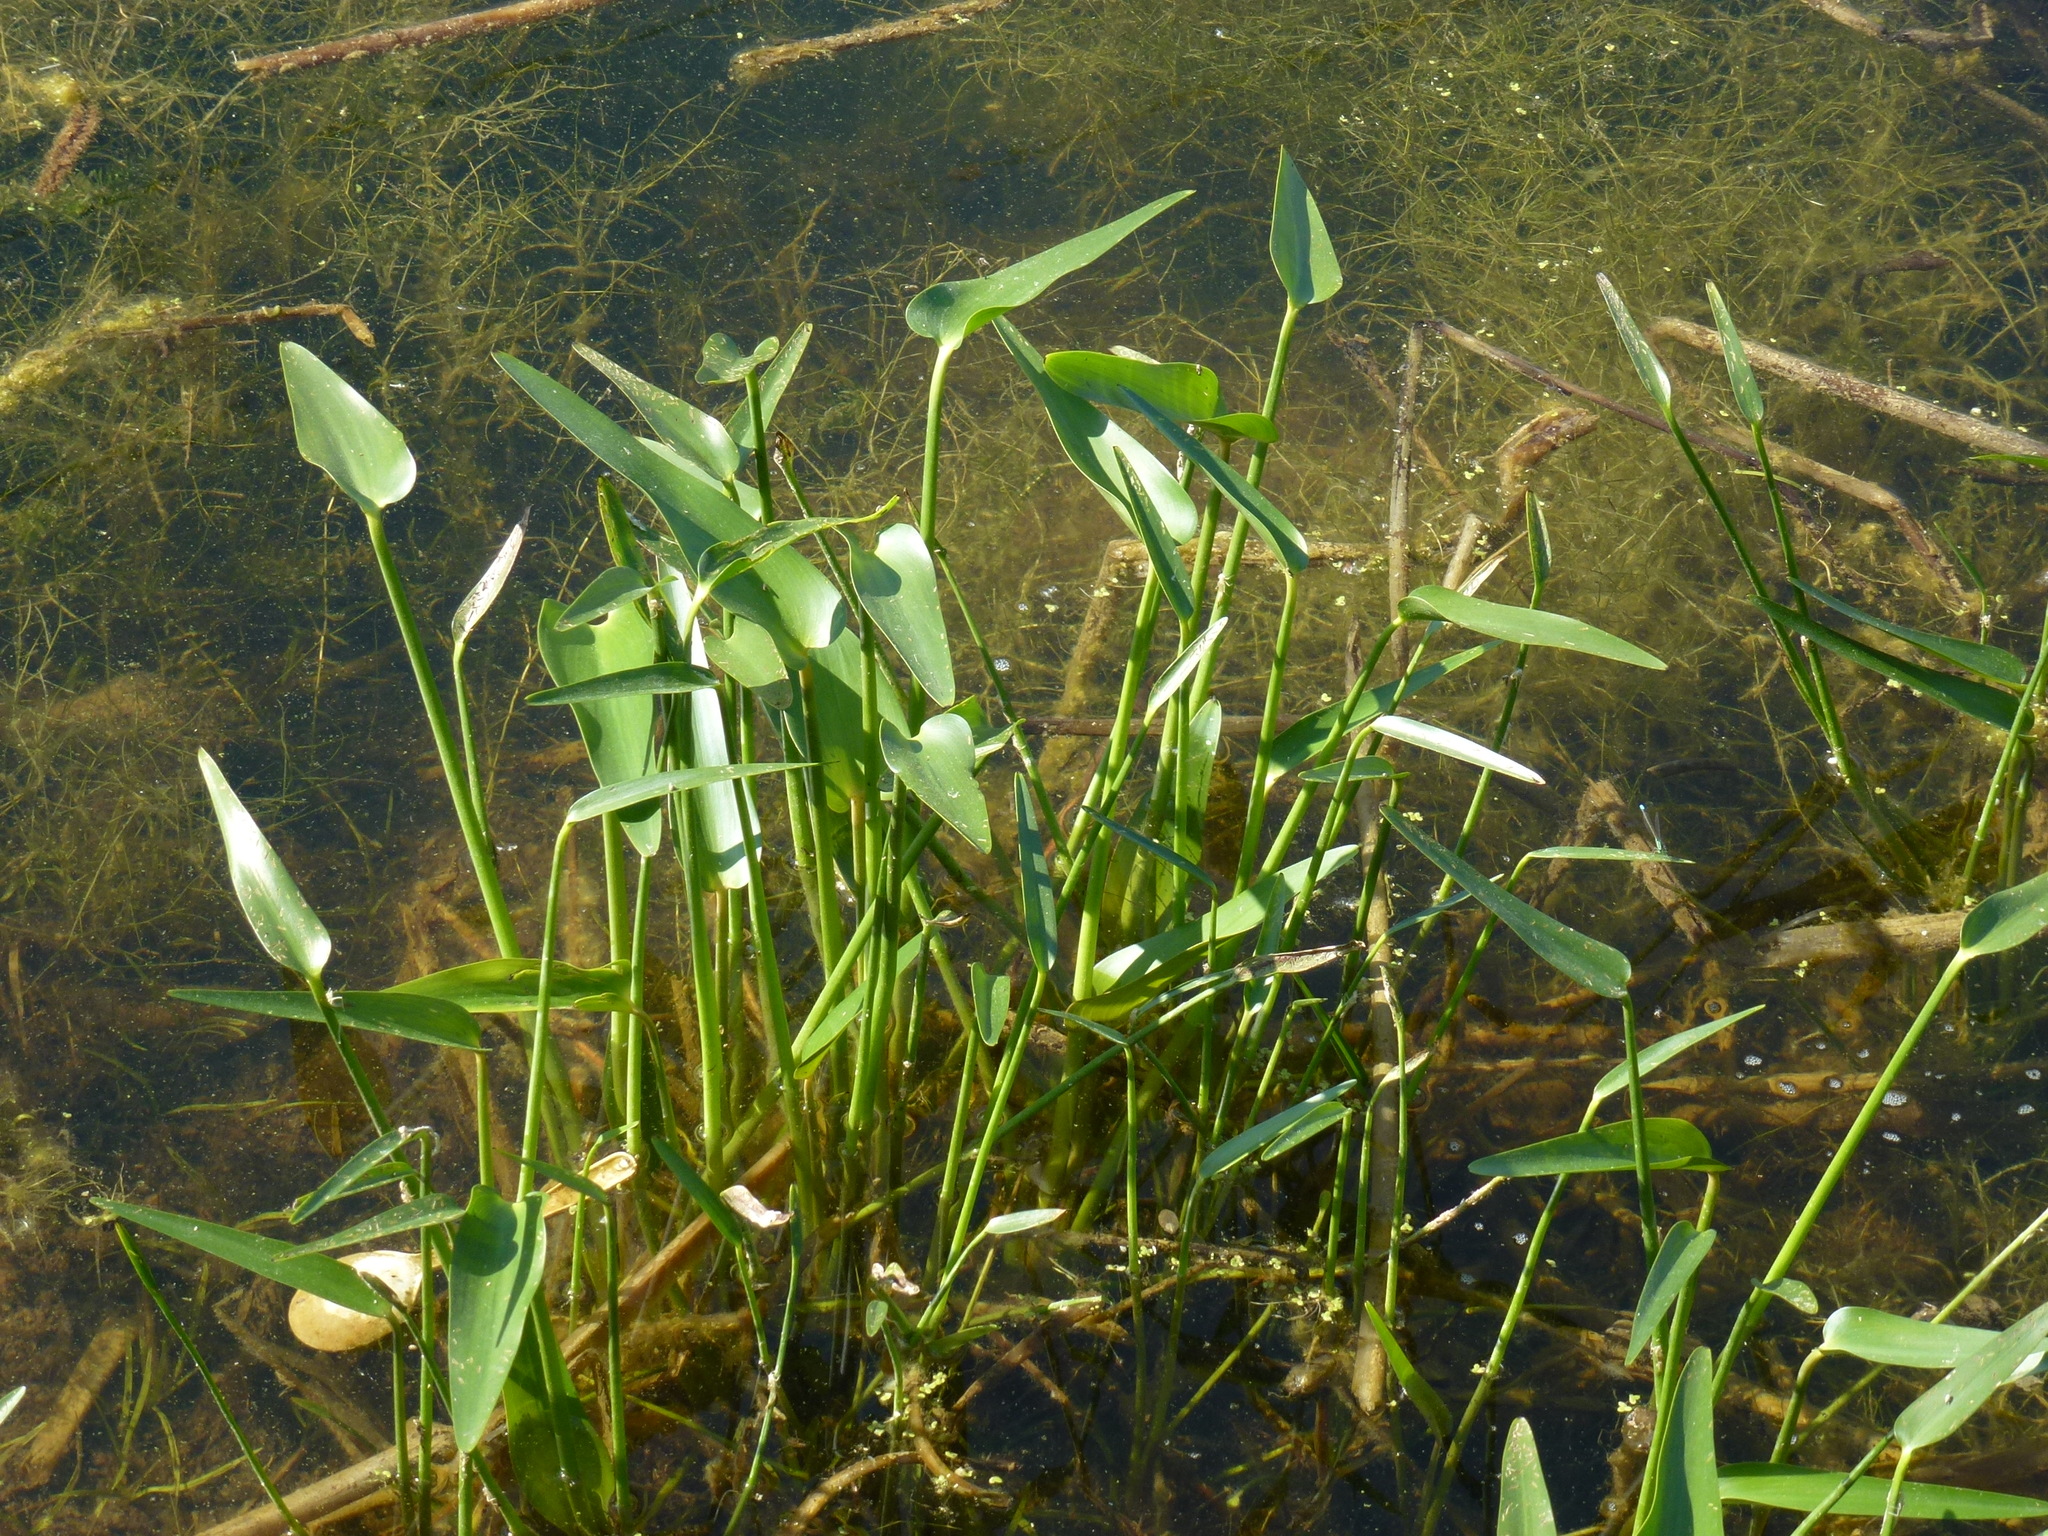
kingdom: Plantae
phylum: Tracheophyta
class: Liliopsida
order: Commelinales
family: Pontederiaceae
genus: Pontederia
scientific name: Pontederia cordata
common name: Pickerelweed
